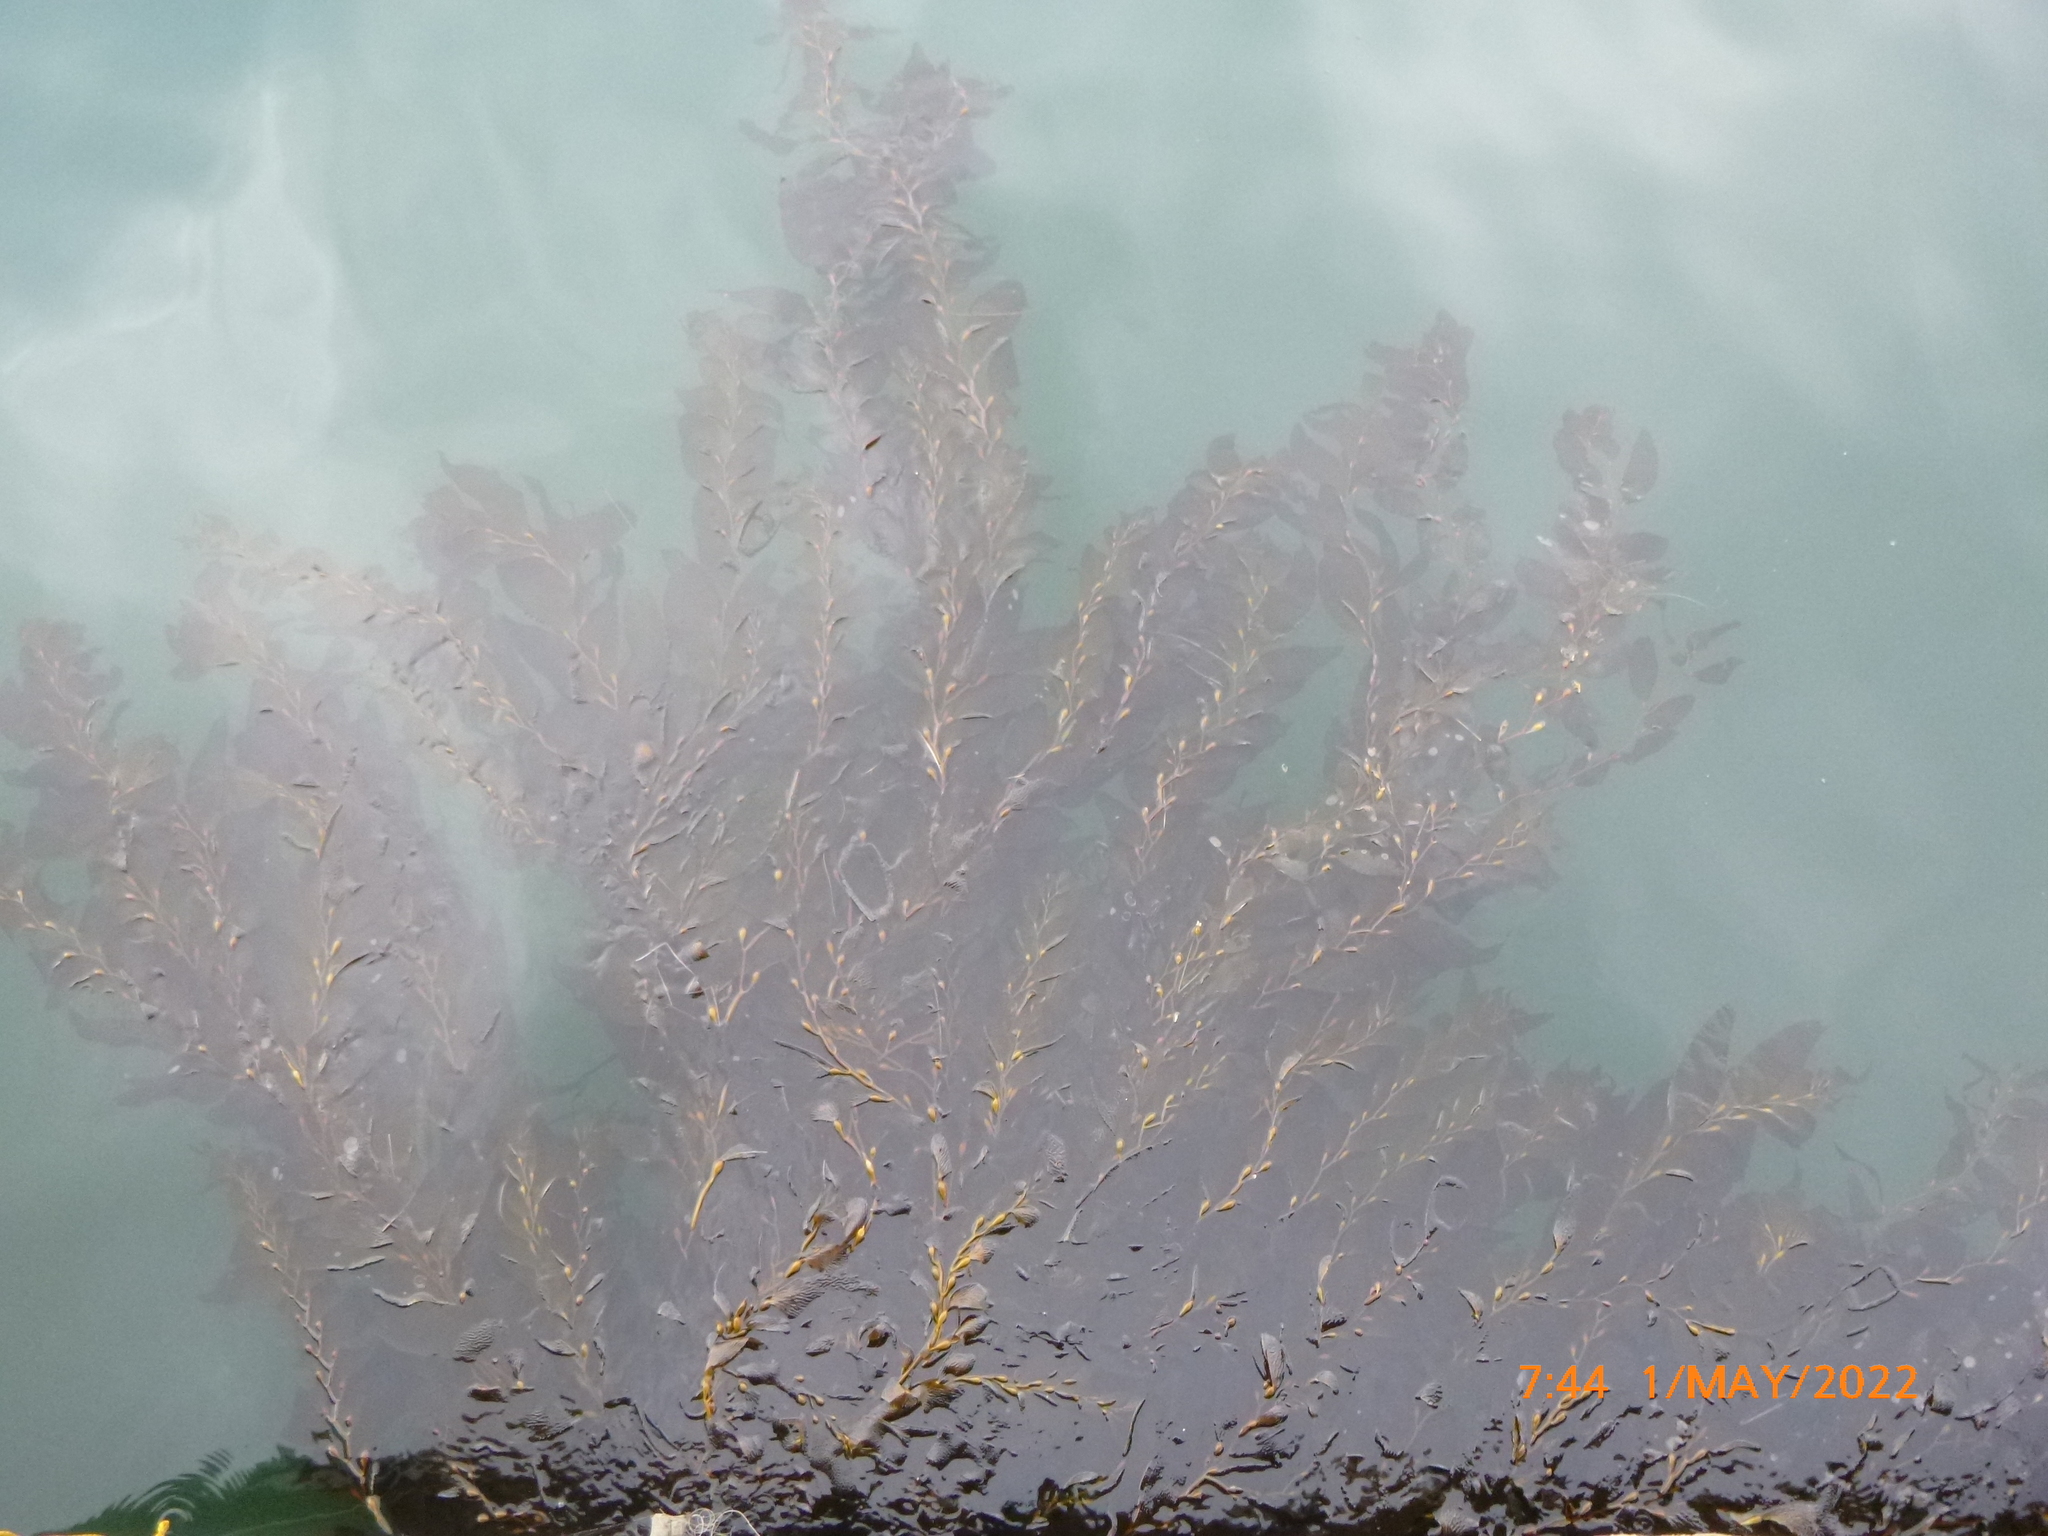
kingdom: Chromista
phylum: Ochrophyta
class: Phaeophyceae
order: Laminariales
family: Laminariaceae
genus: Macrocystis
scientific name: Macrocystis pyrifera
